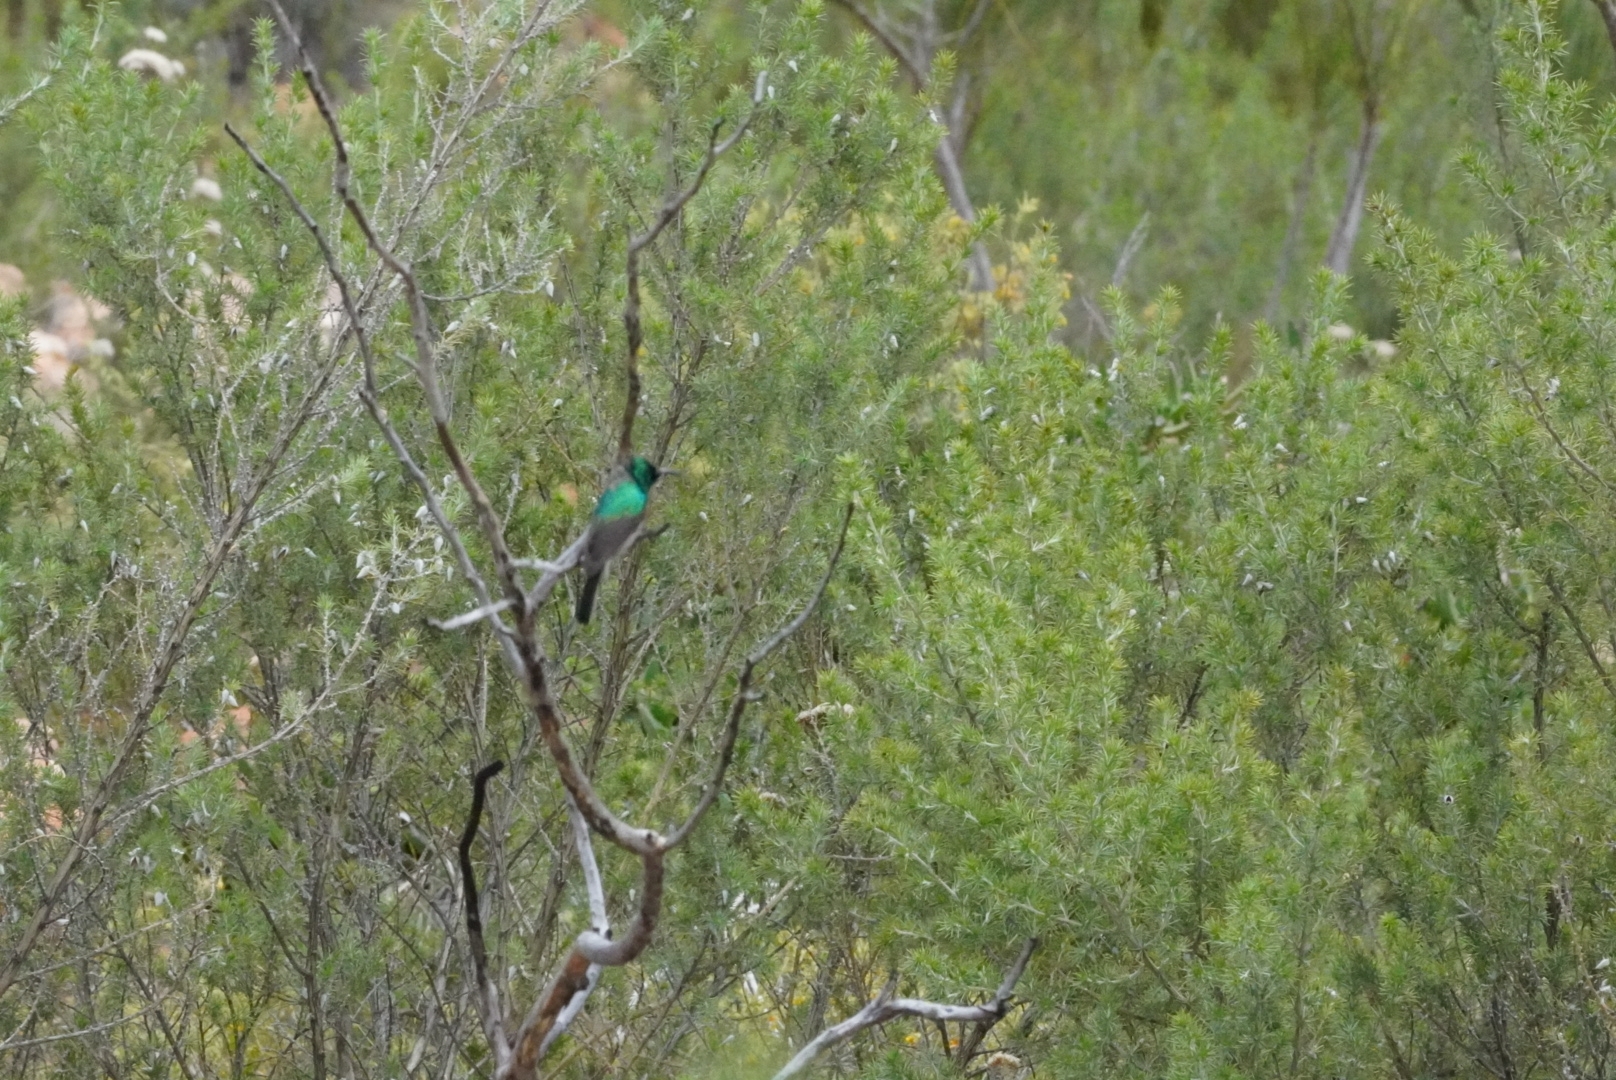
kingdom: Animalia
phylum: Chordata
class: Aves
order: Passeriformes
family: Nectariniidae
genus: Cinnyris
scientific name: Cinnyris chalybeus
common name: Southern double-collared sunbird
